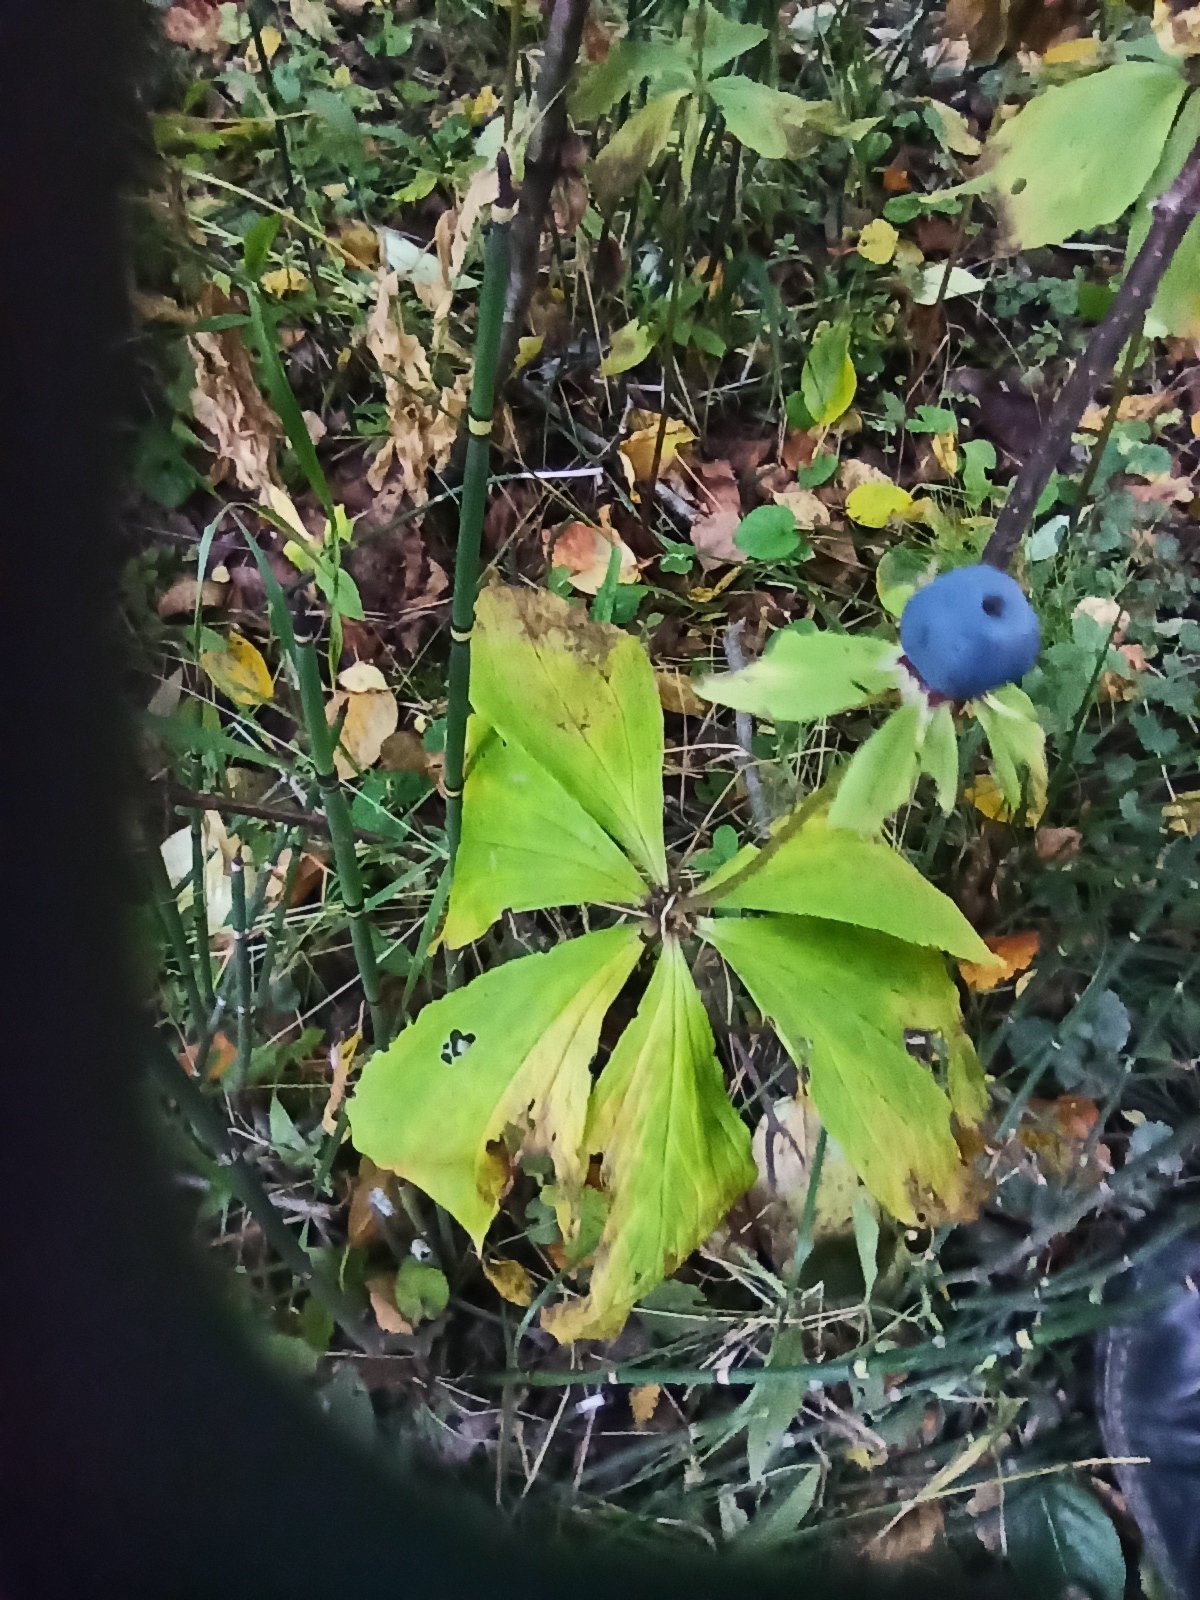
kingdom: Plantae
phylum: Tracheophyta
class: Liliopsida
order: Liliales
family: Melanthiaceae
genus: Paris
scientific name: Paris verticillata
